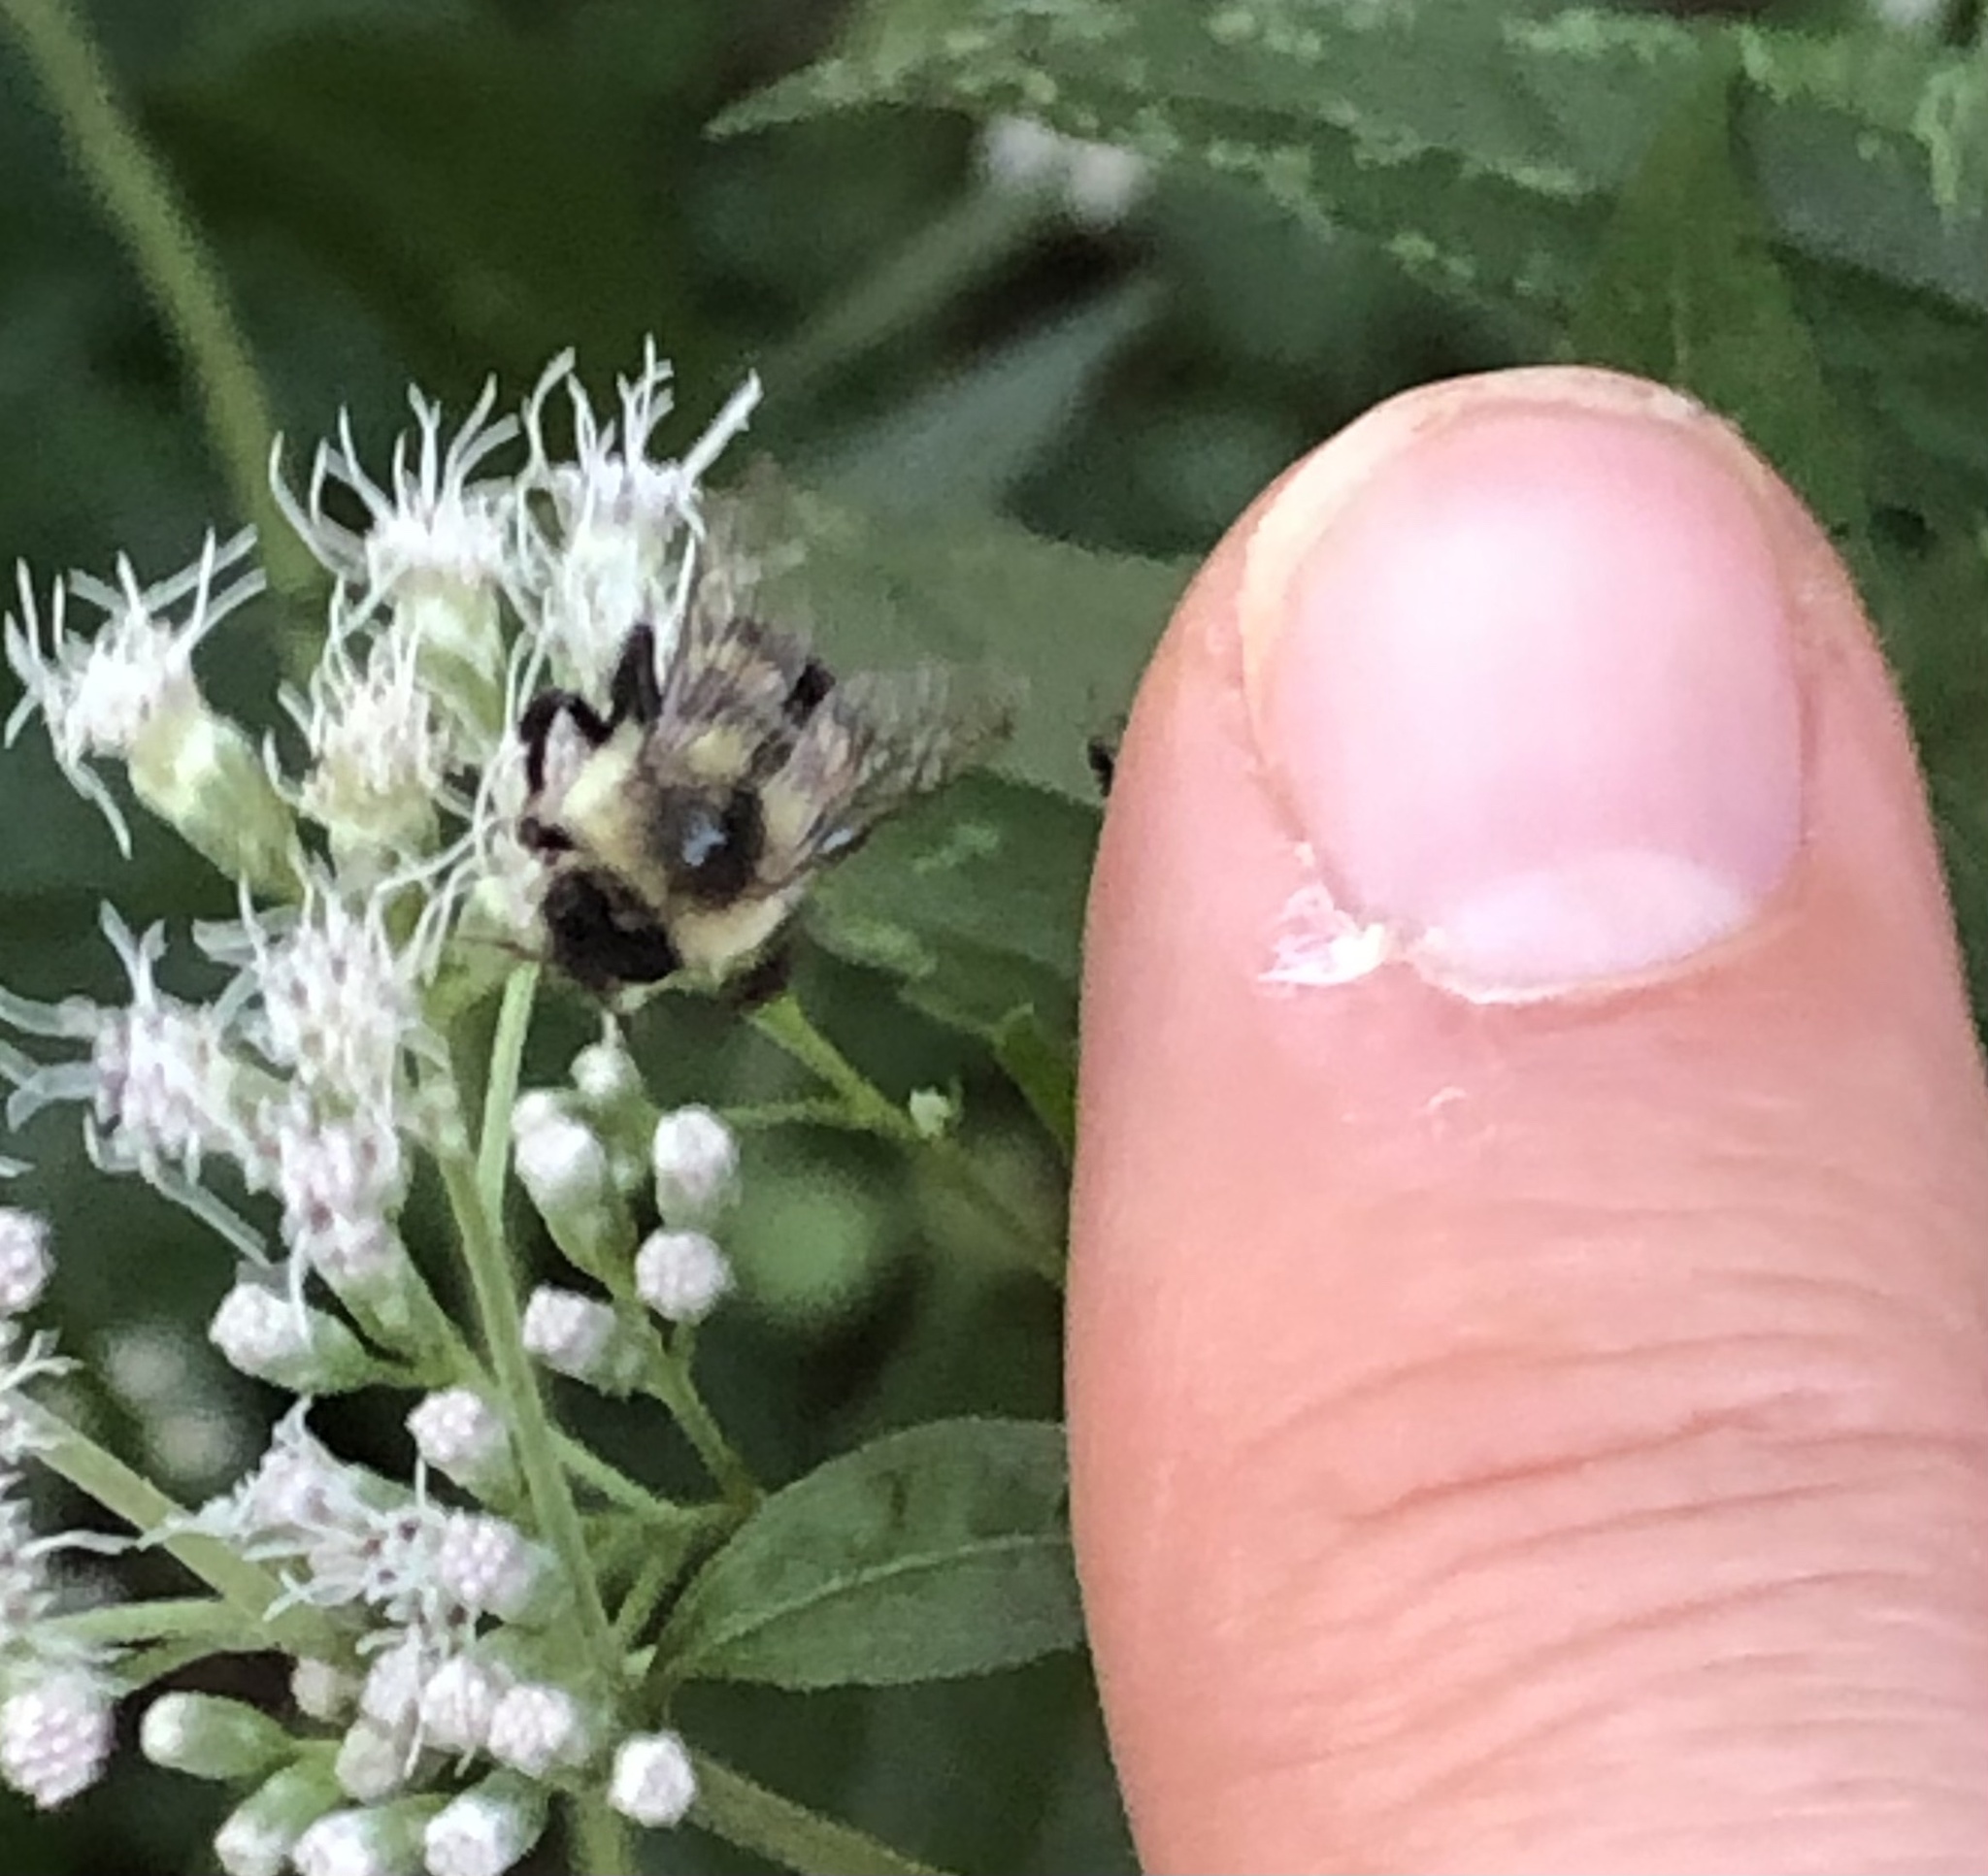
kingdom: Animalia
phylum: Arthropoda
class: Insecta
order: Hymenoptera
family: Apidae
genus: Bombus
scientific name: Bombus impatiens
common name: Common eastern bumble bee
